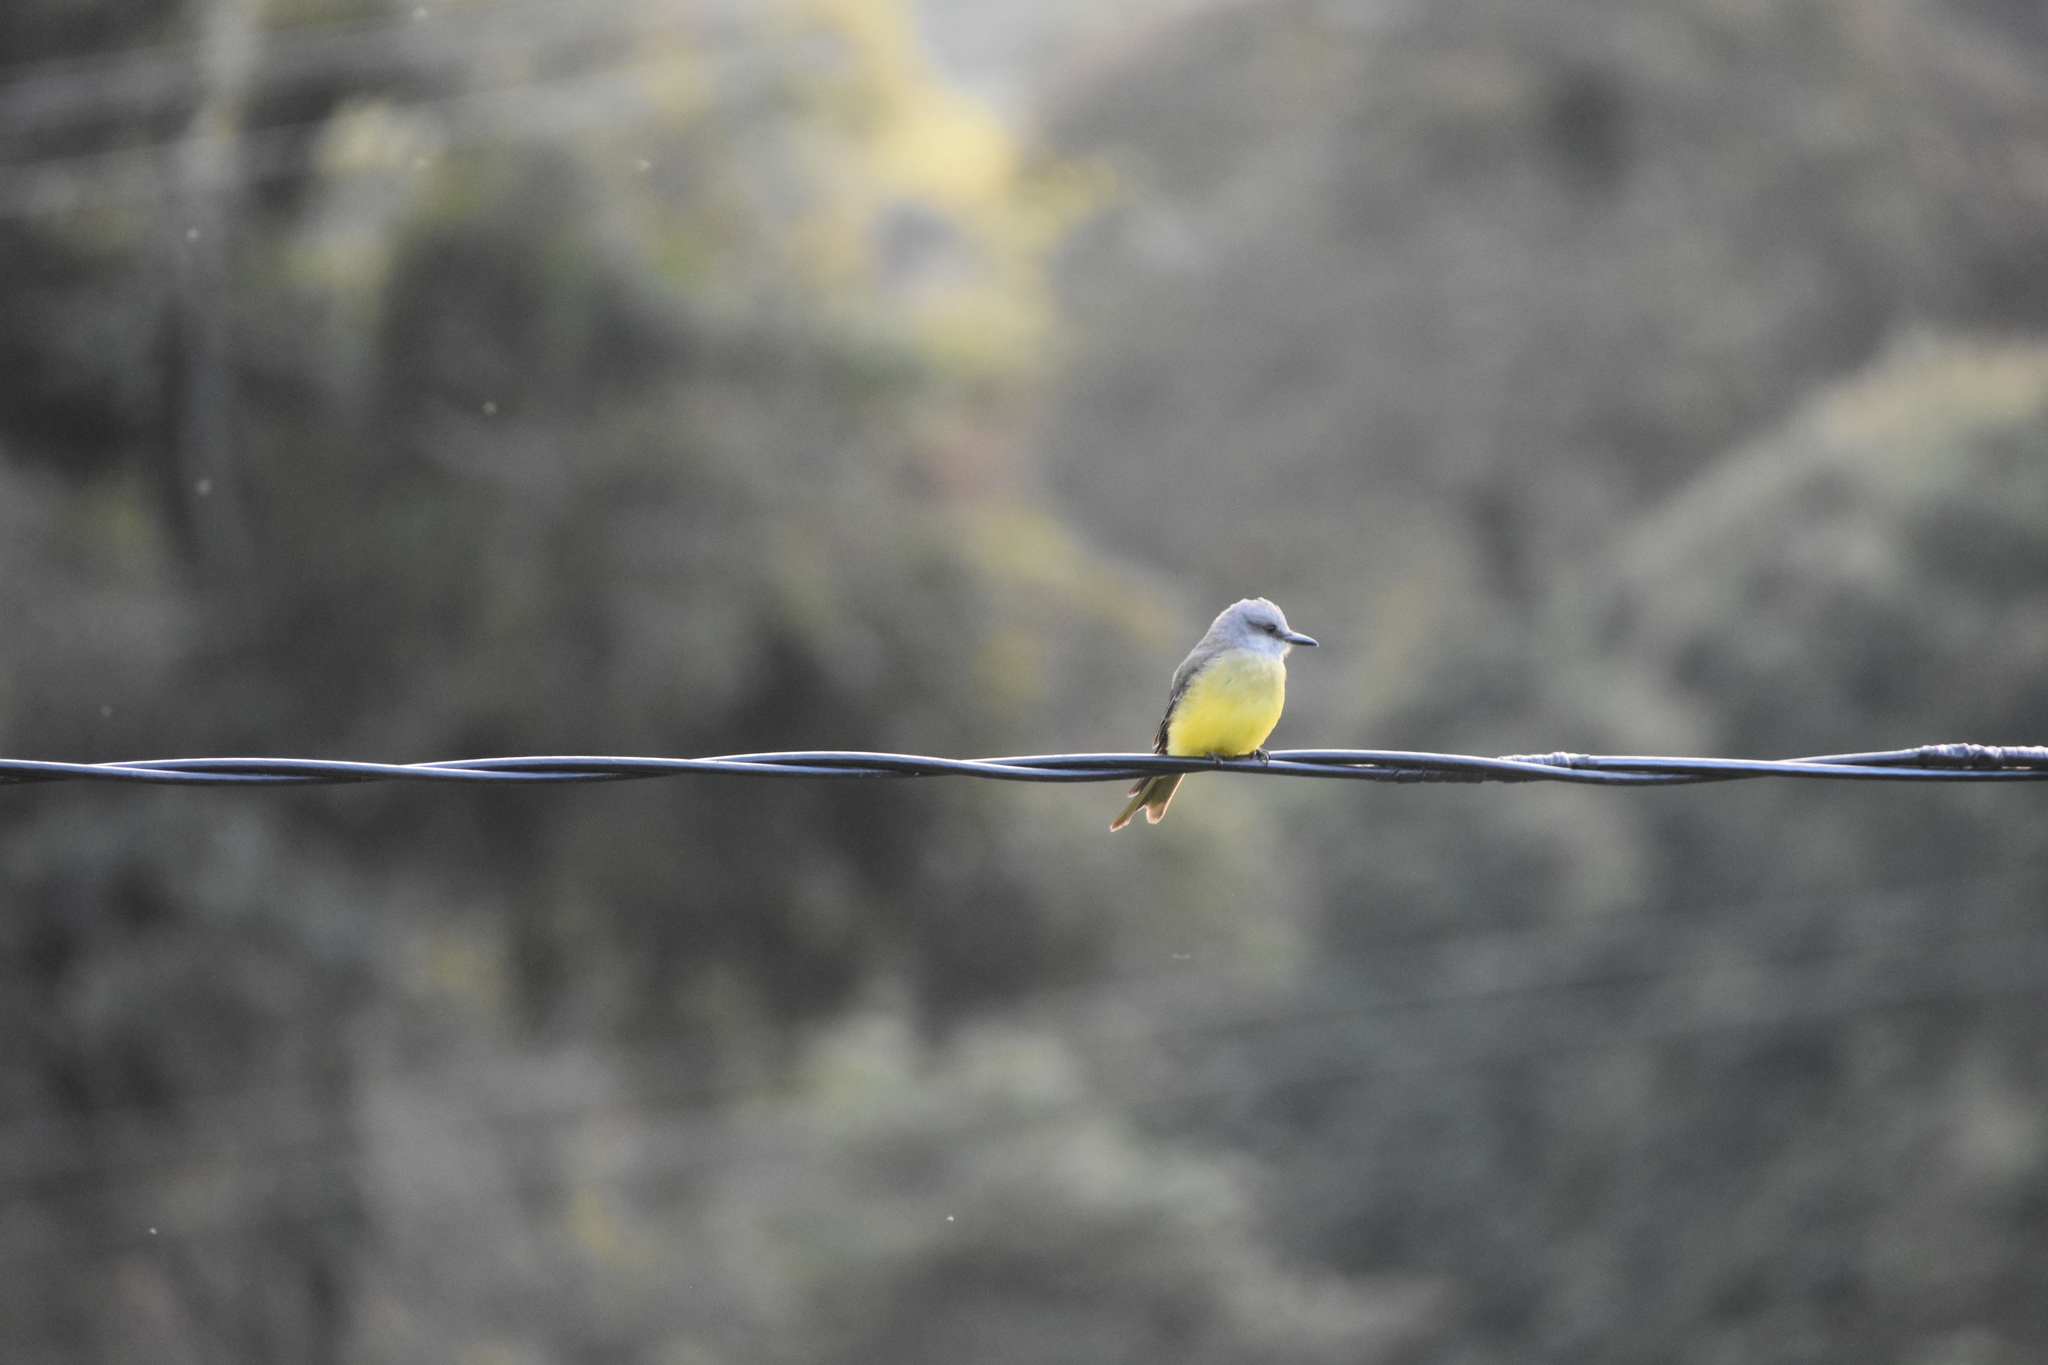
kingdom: Animalia
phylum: Chordata
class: Aves
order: Passeriformes
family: Tyrannidae
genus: Tyrannus
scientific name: Tyrannus melancholicus
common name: Tropical kingbird
